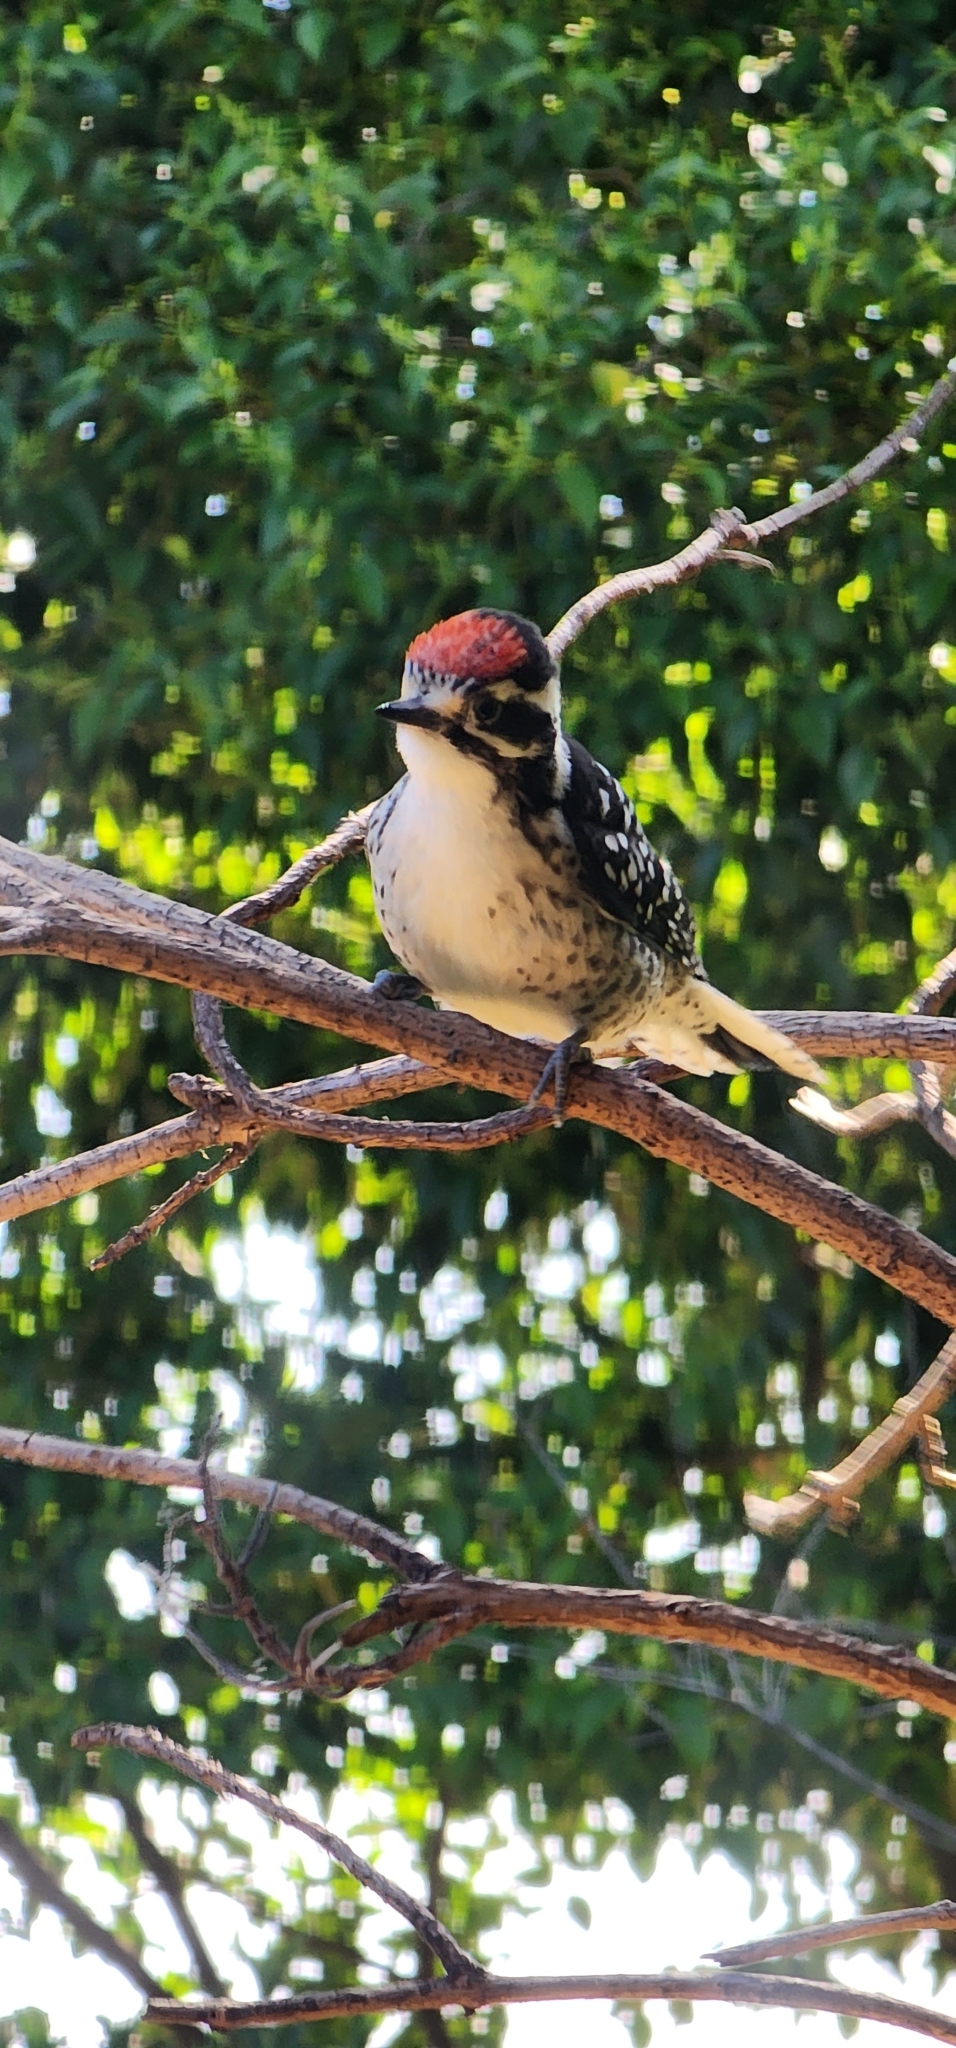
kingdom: Animalia
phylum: Chordata
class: Aves
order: Piciformes
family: Picidae
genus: Dryobates
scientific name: Dryobates nuttallii
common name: Nuttall's woodpecker
